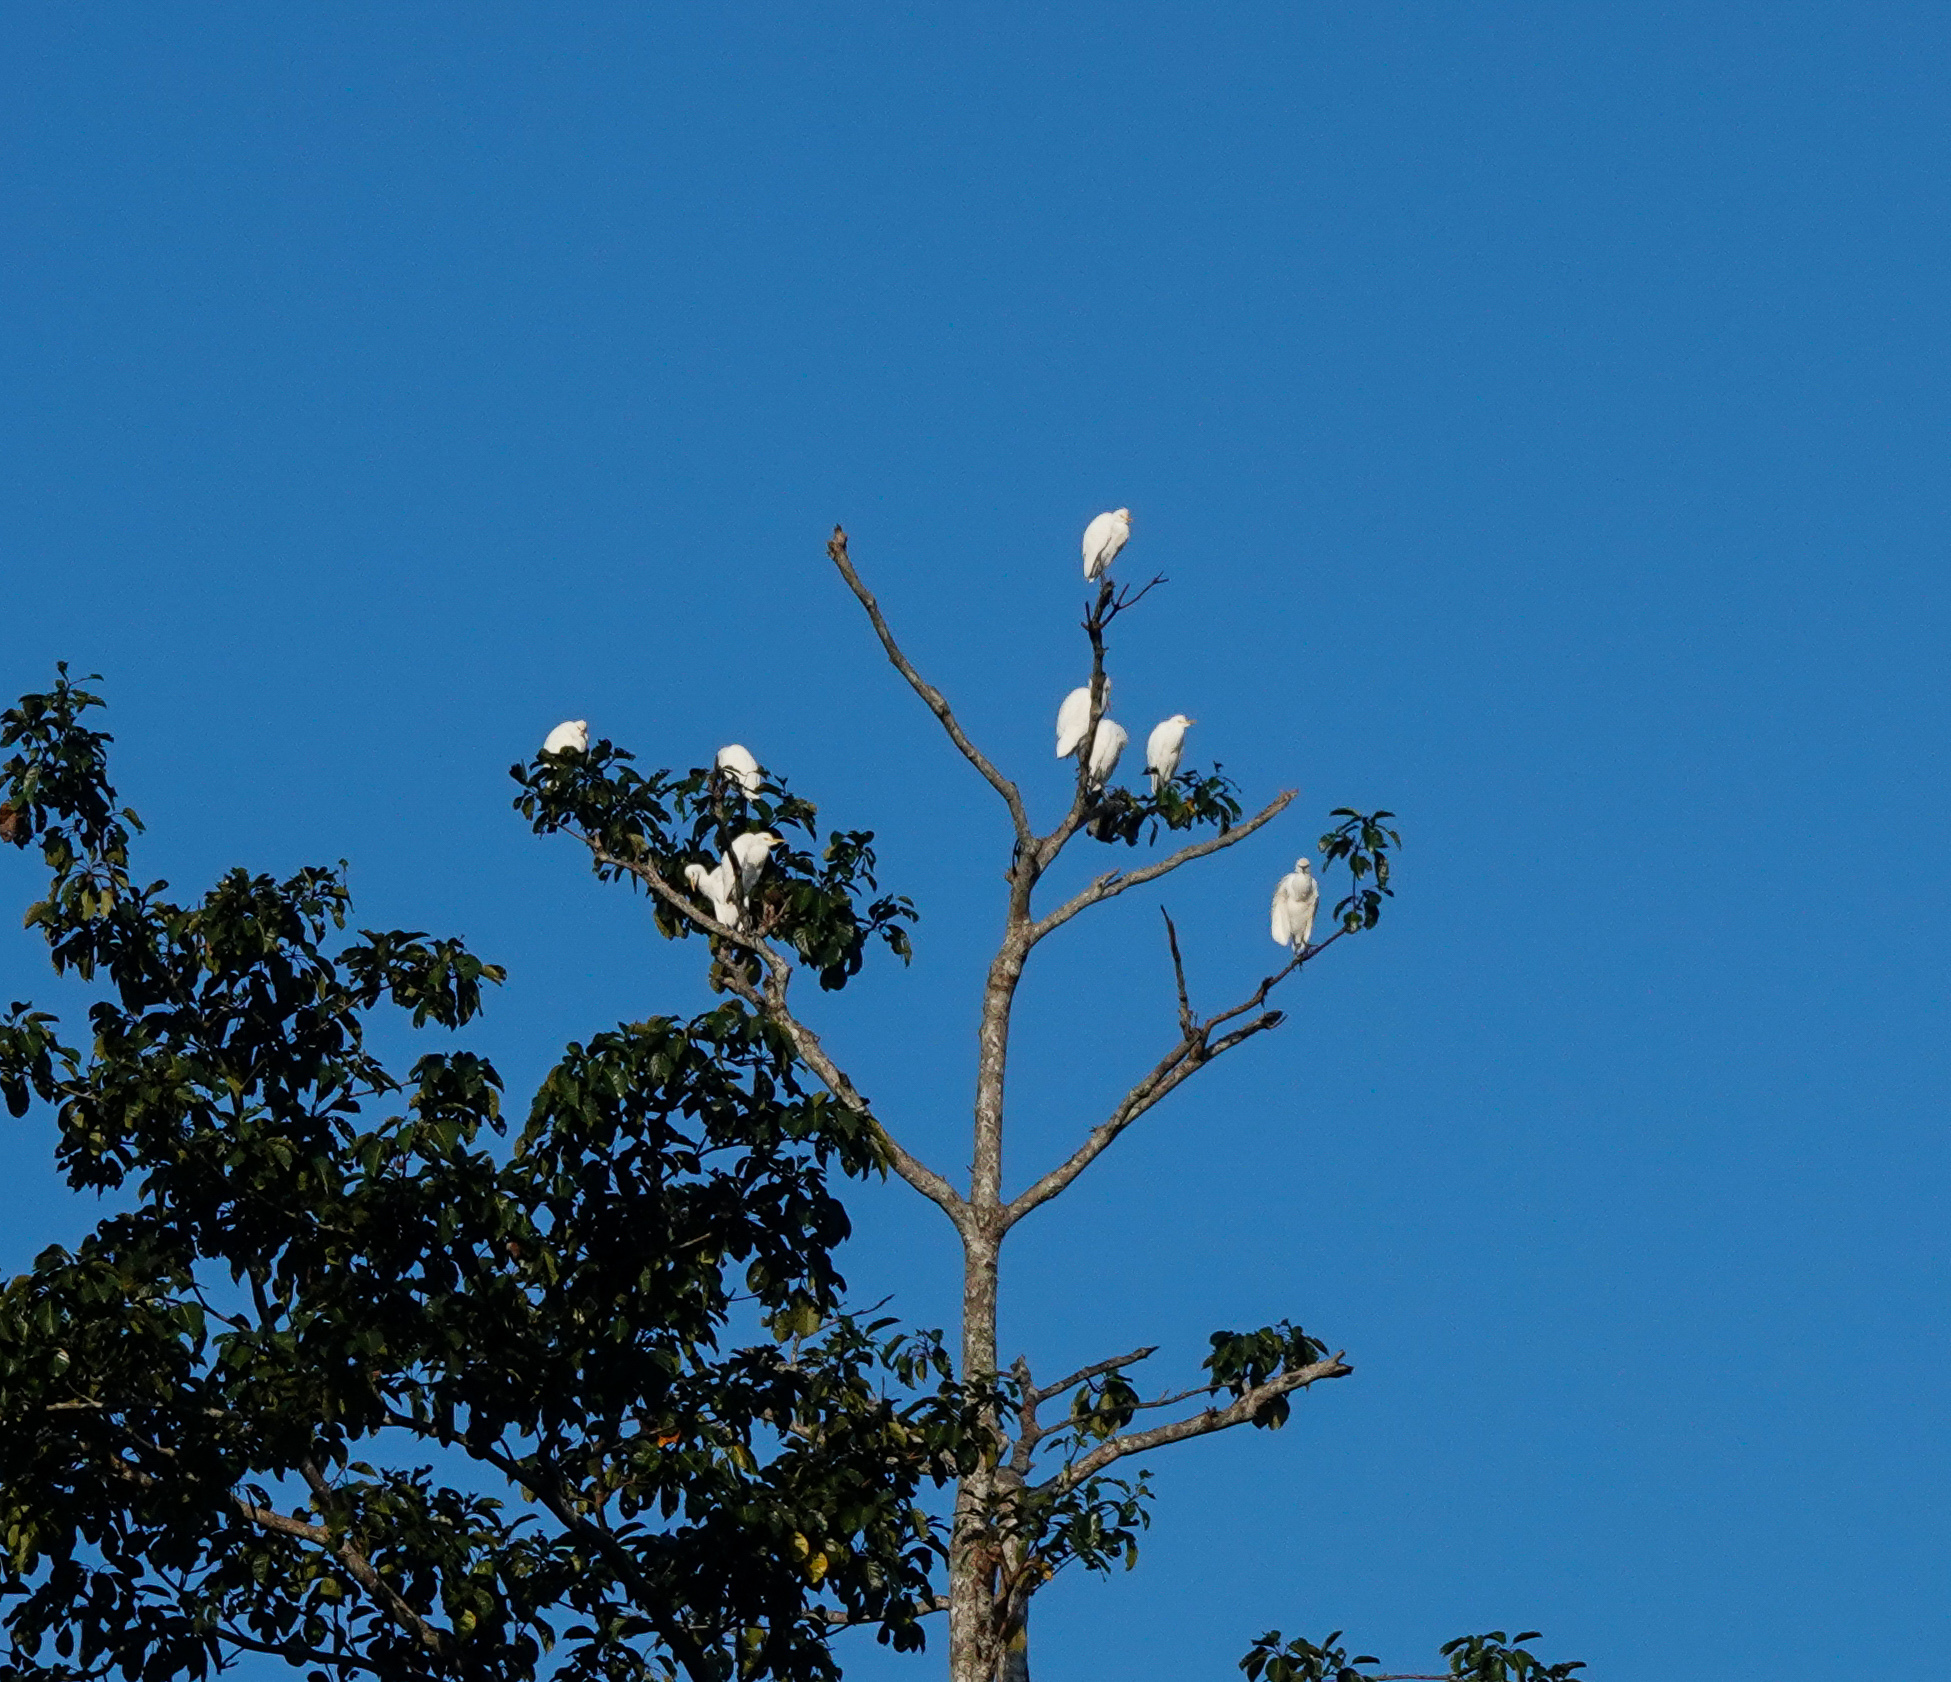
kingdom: Animalia
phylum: Chordata
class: Aves
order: Pelecaniformes
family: Ardeidae
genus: Bubulcus
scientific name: Bubulcus coromandus
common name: Eastern cattle egret
